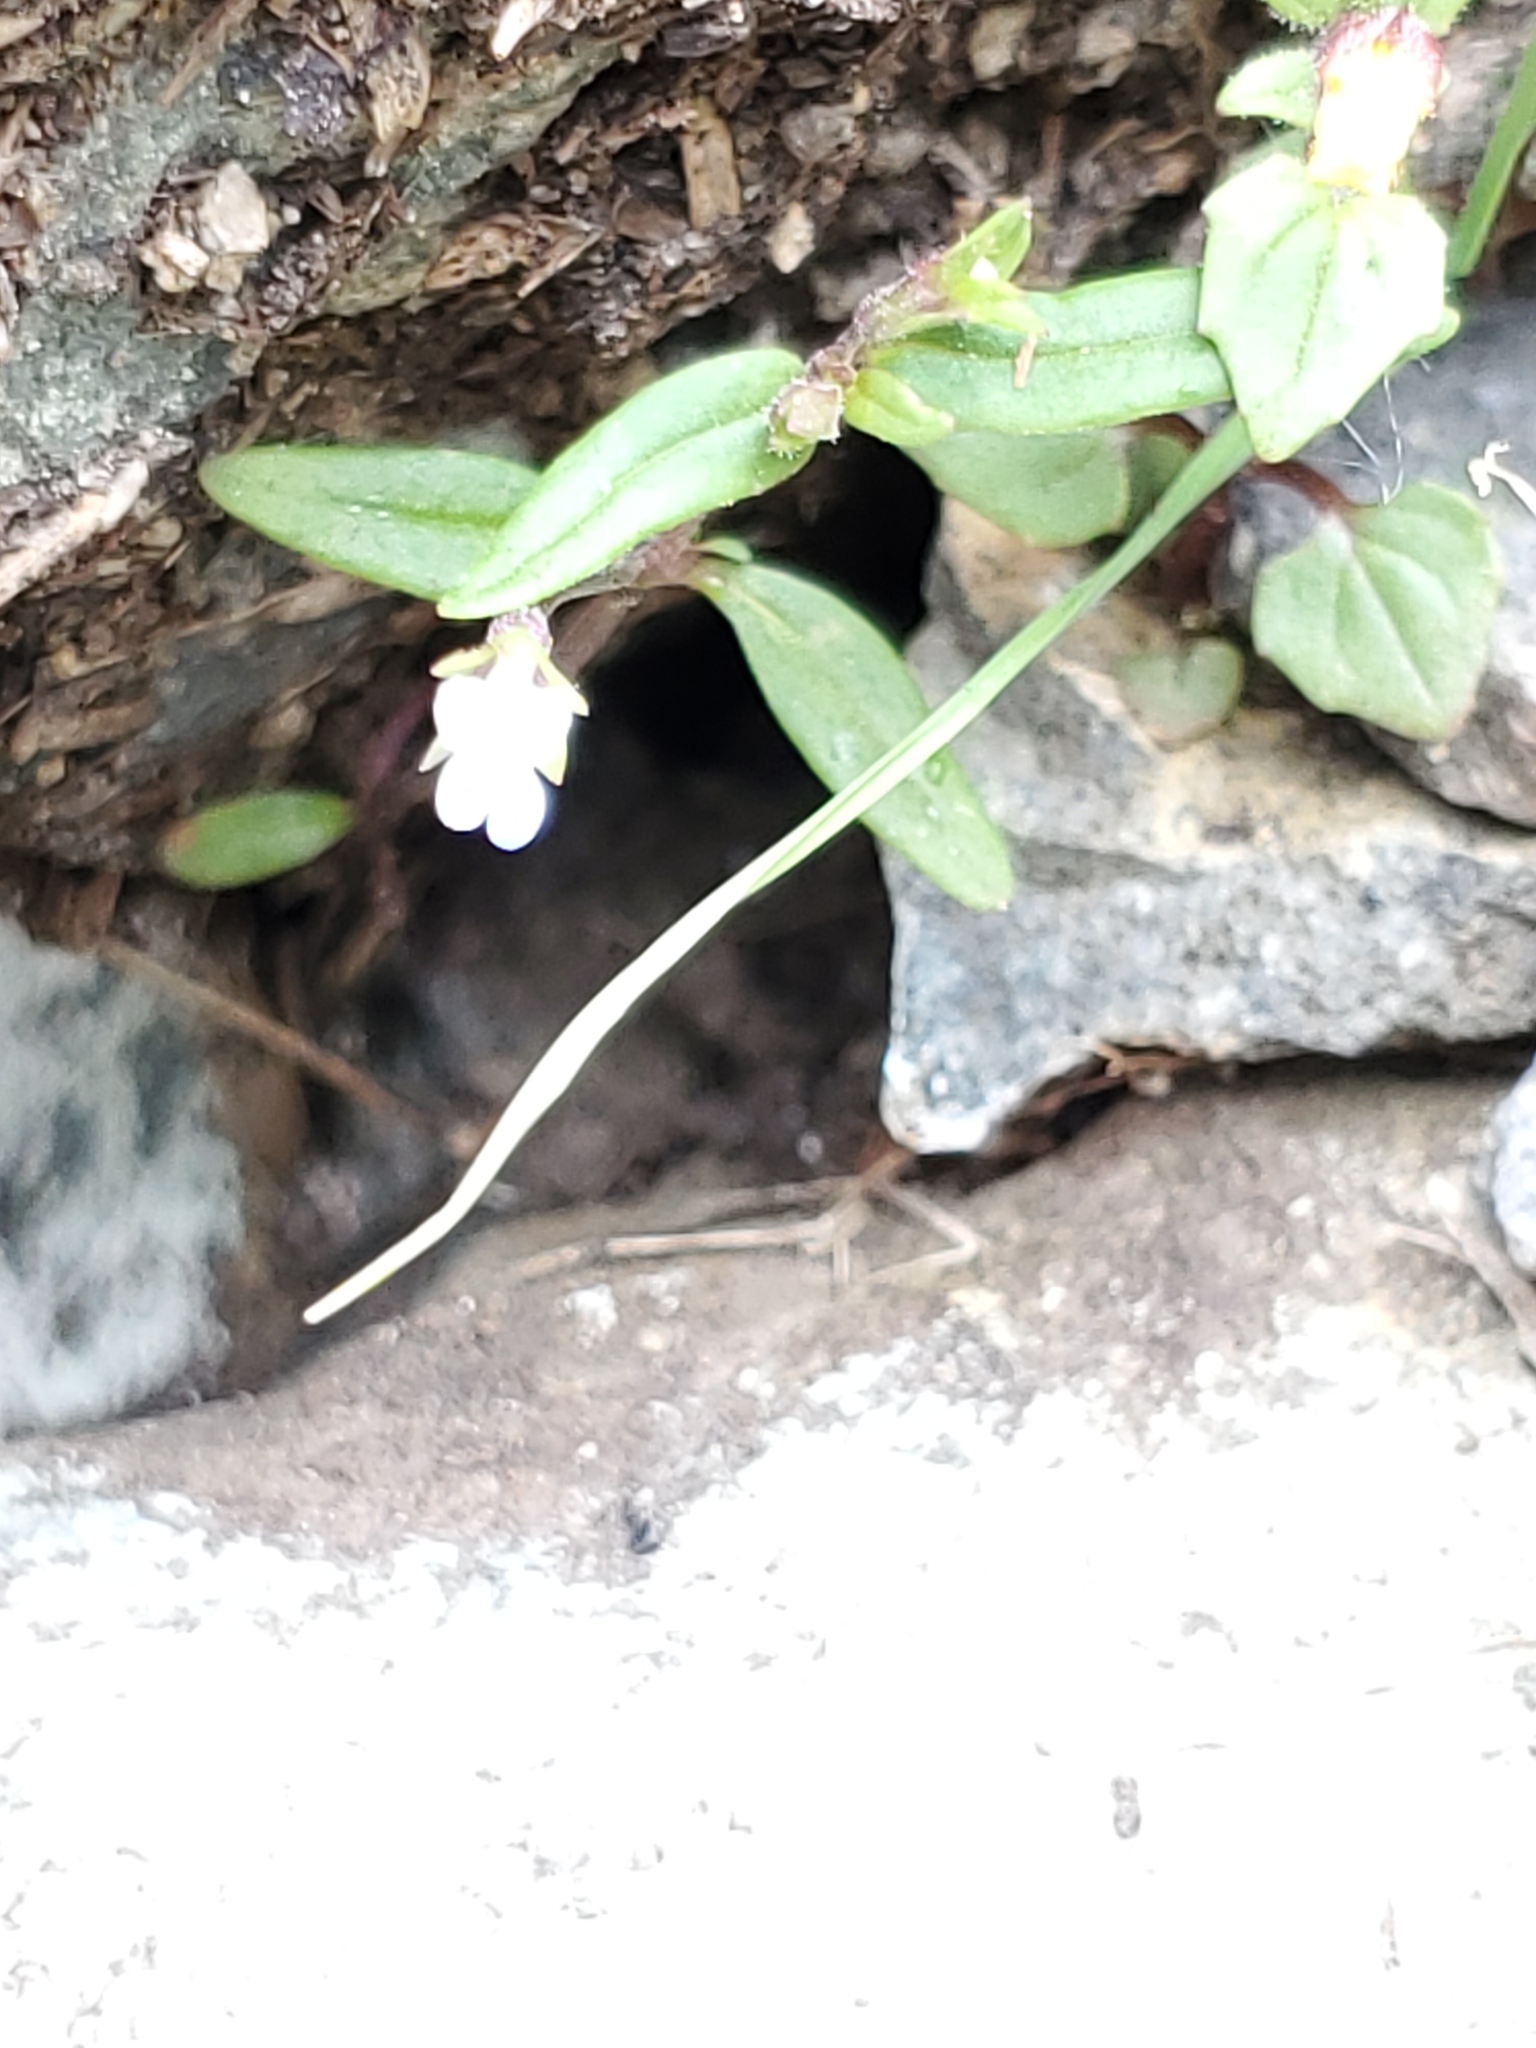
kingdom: Plantae
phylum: Tracheophyta
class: Magnoliopsida
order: Lamiales
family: Plantaginaceae
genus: Collinsia
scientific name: Collinsia parviflora
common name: Blue-lips
